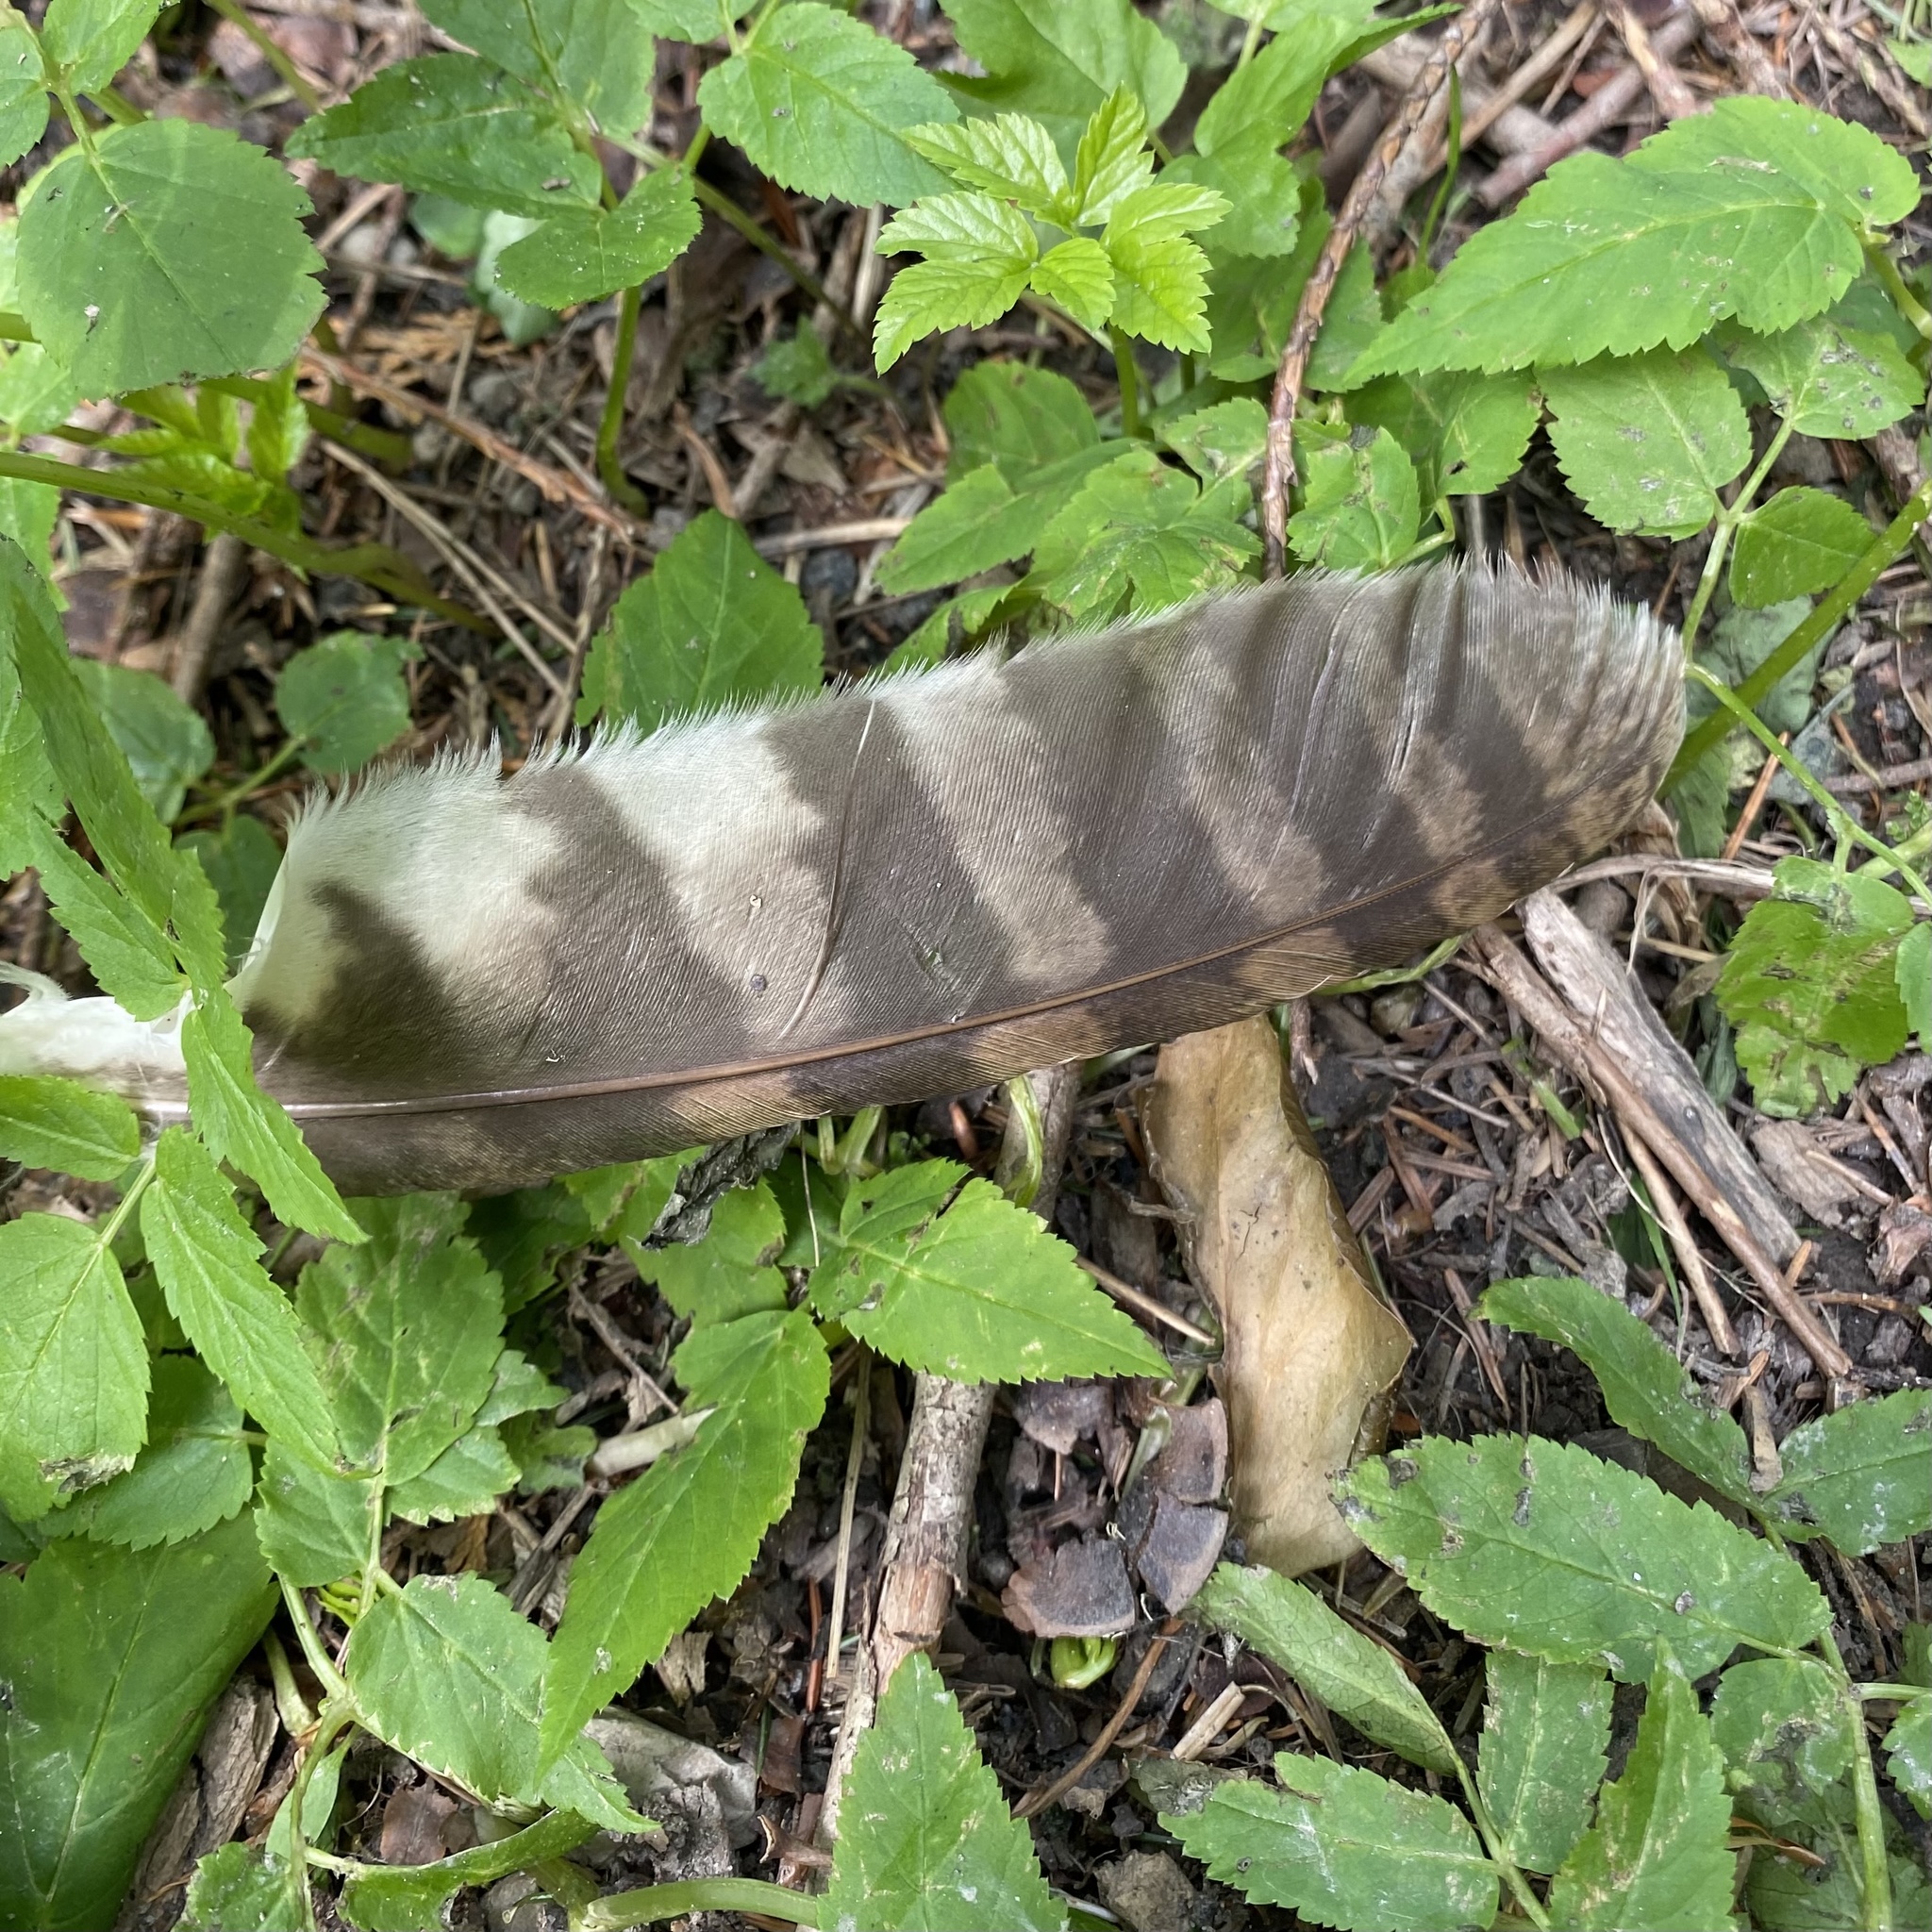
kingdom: Animalia
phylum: Chordata
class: Aves
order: Strigiformes
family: Strigidae
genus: Strix
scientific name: Strix aluco
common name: Tawny owl
